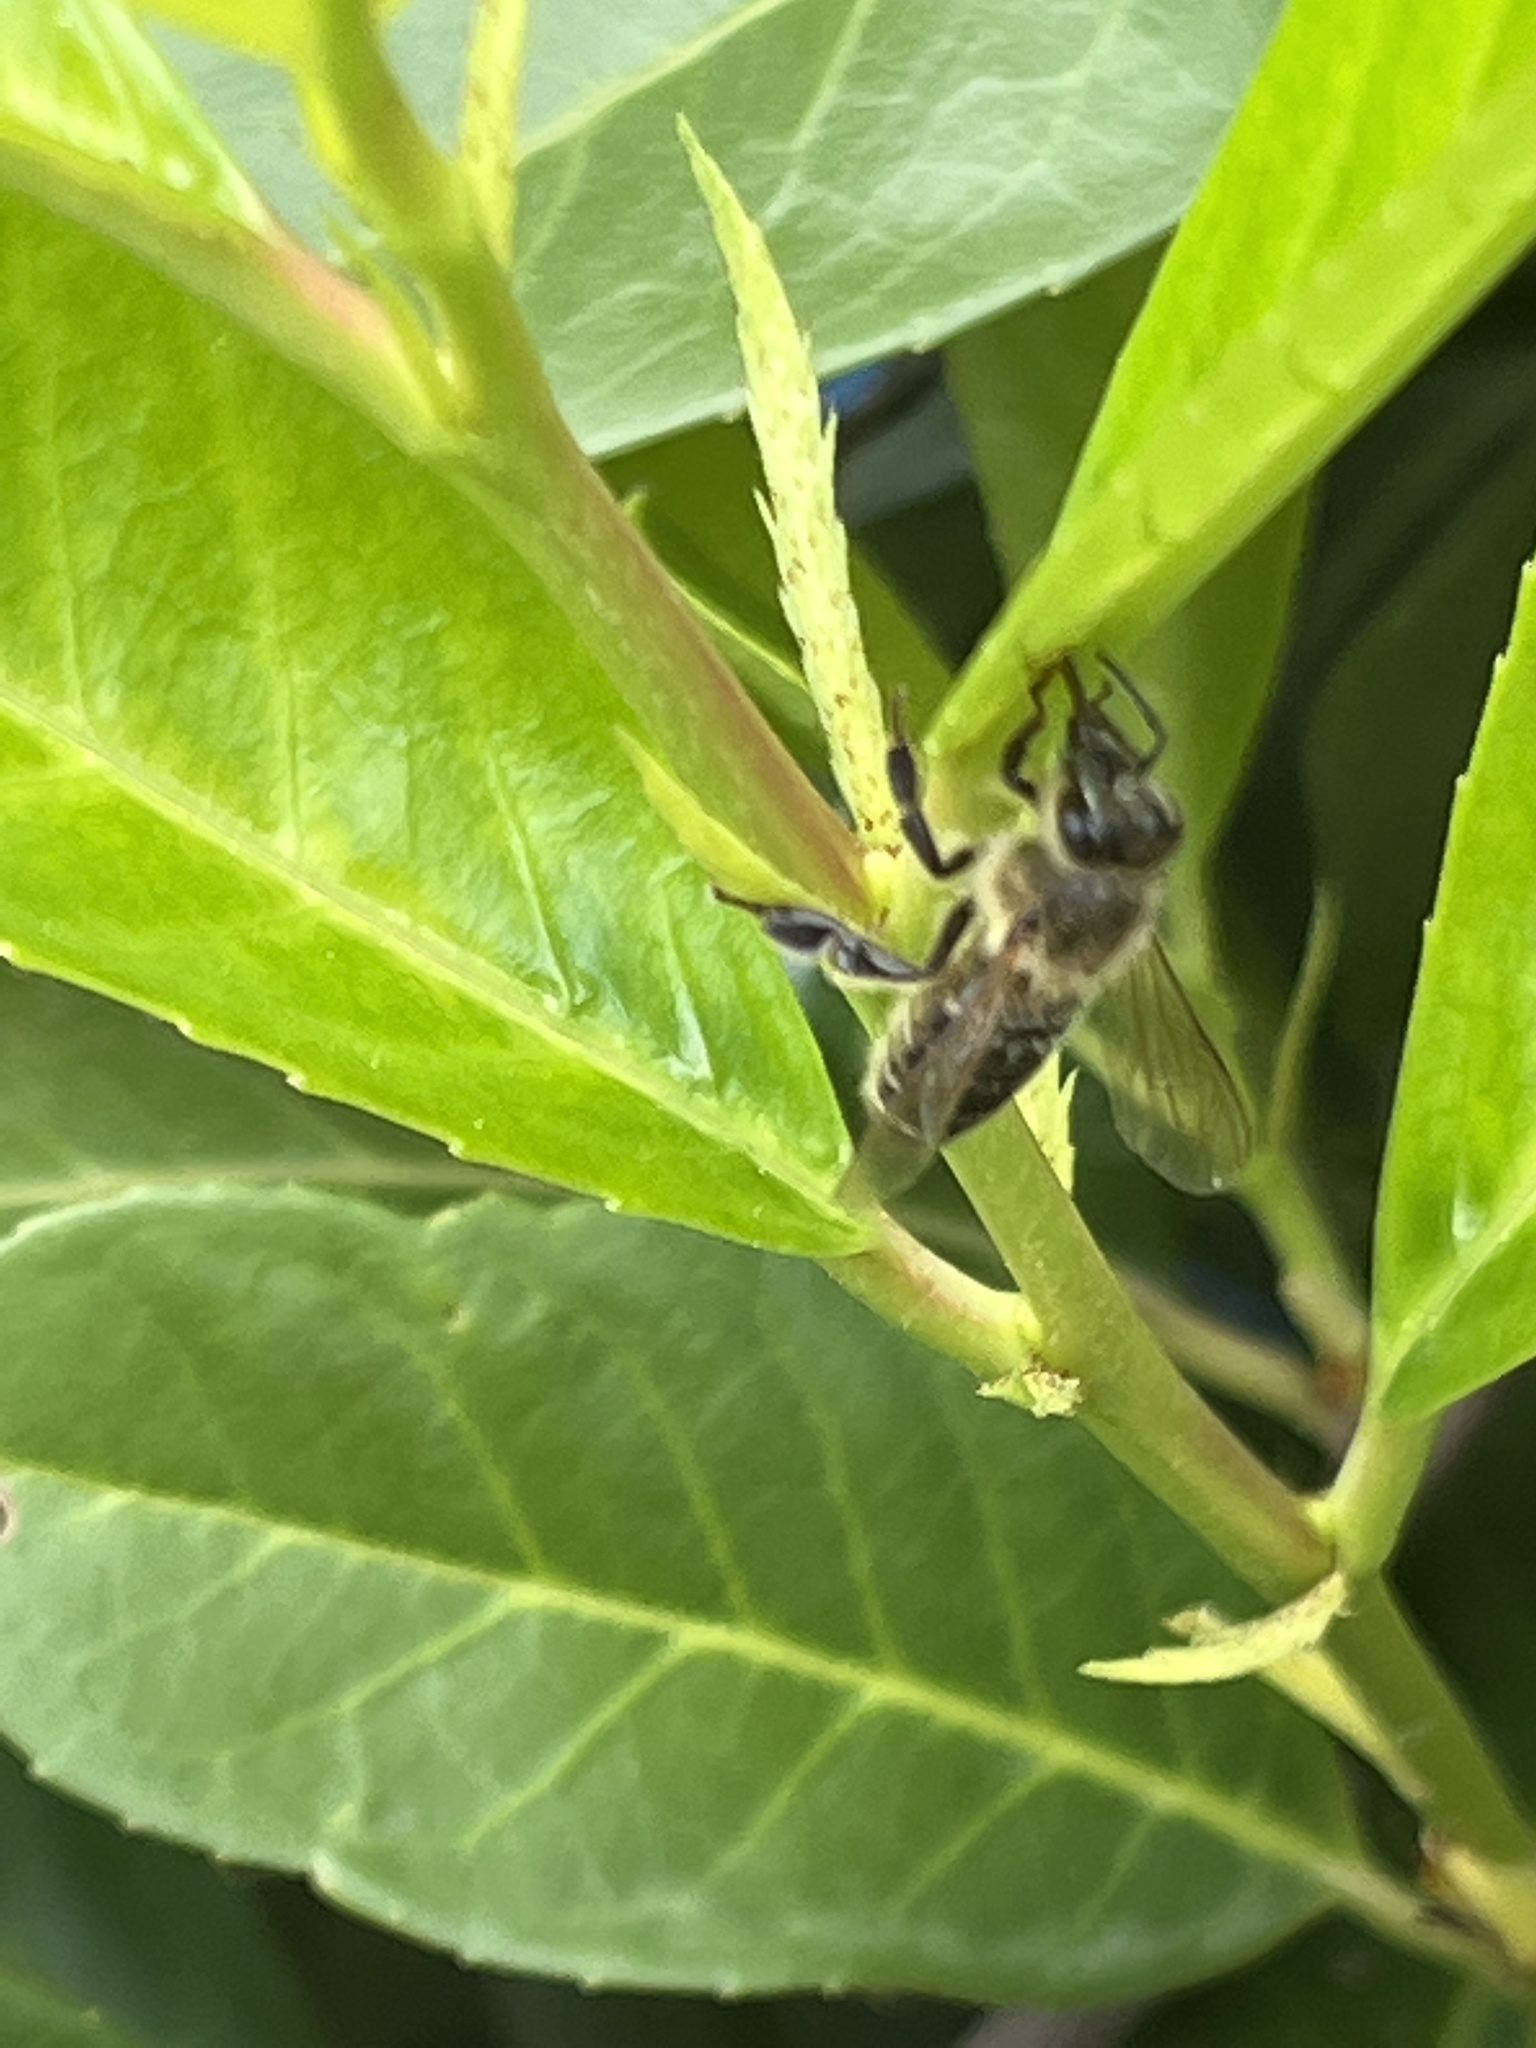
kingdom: Animalia
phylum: Arthropoda
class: Insecta
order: Hymenoptera
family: Apidae
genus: Apis
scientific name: Apis mellifera
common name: Honey bee
